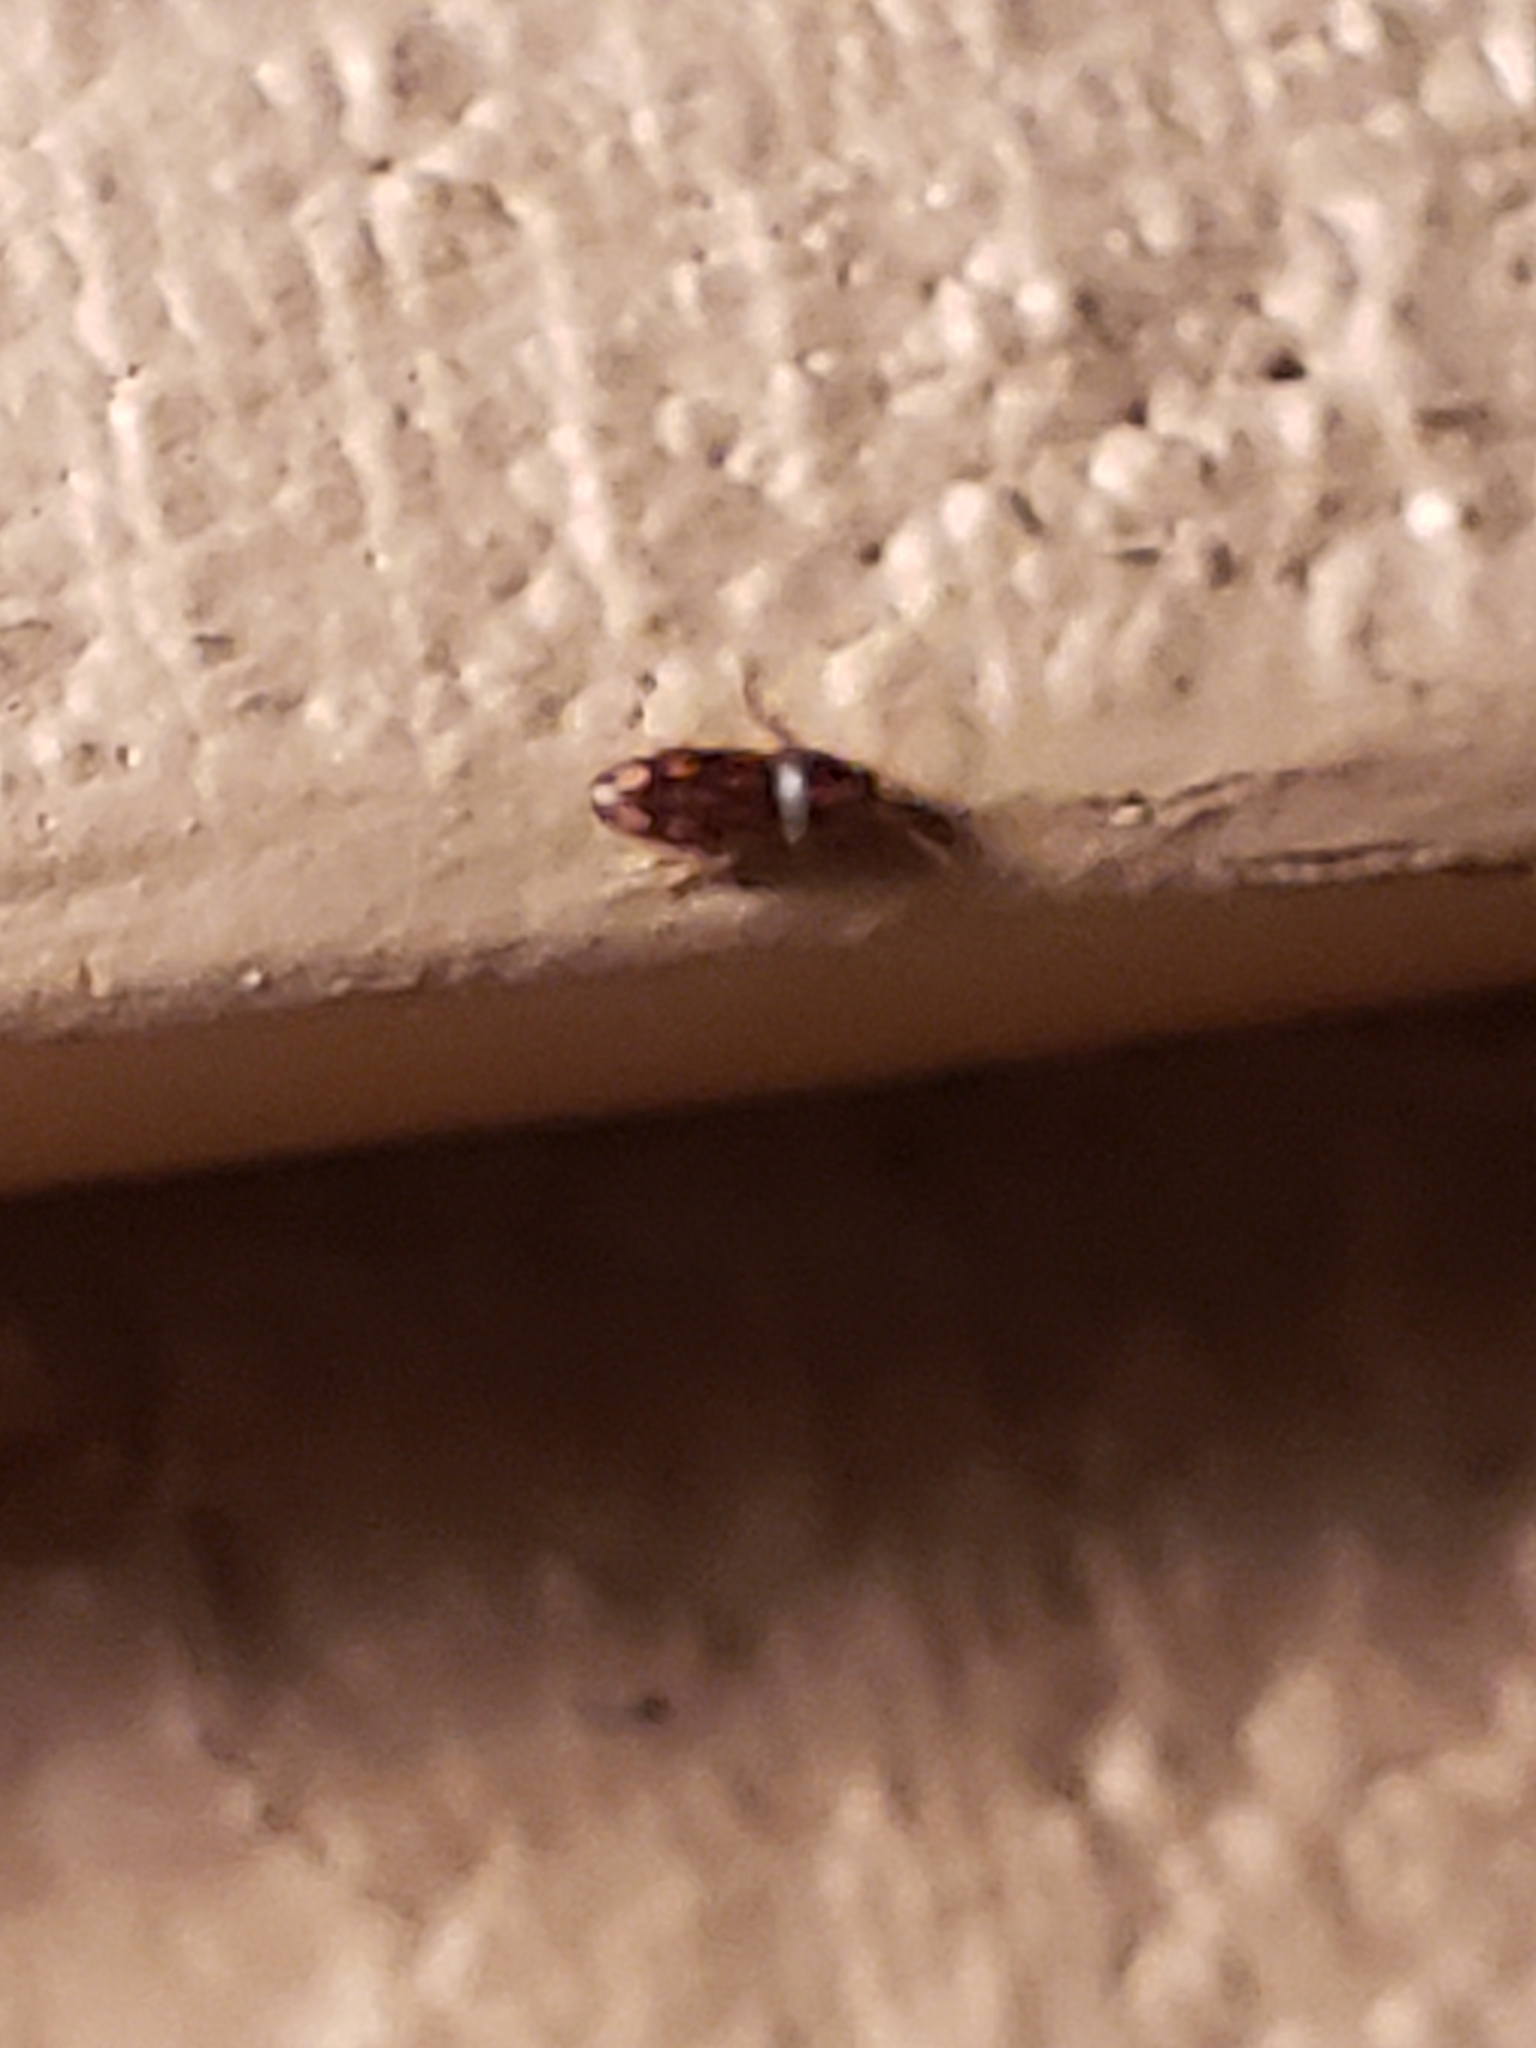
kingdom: Animalia
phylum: Arthropoda
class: Insecta
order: Coleoptera
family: Elateridae
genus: Monocrepidius
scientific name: Monocrepidius bellus
